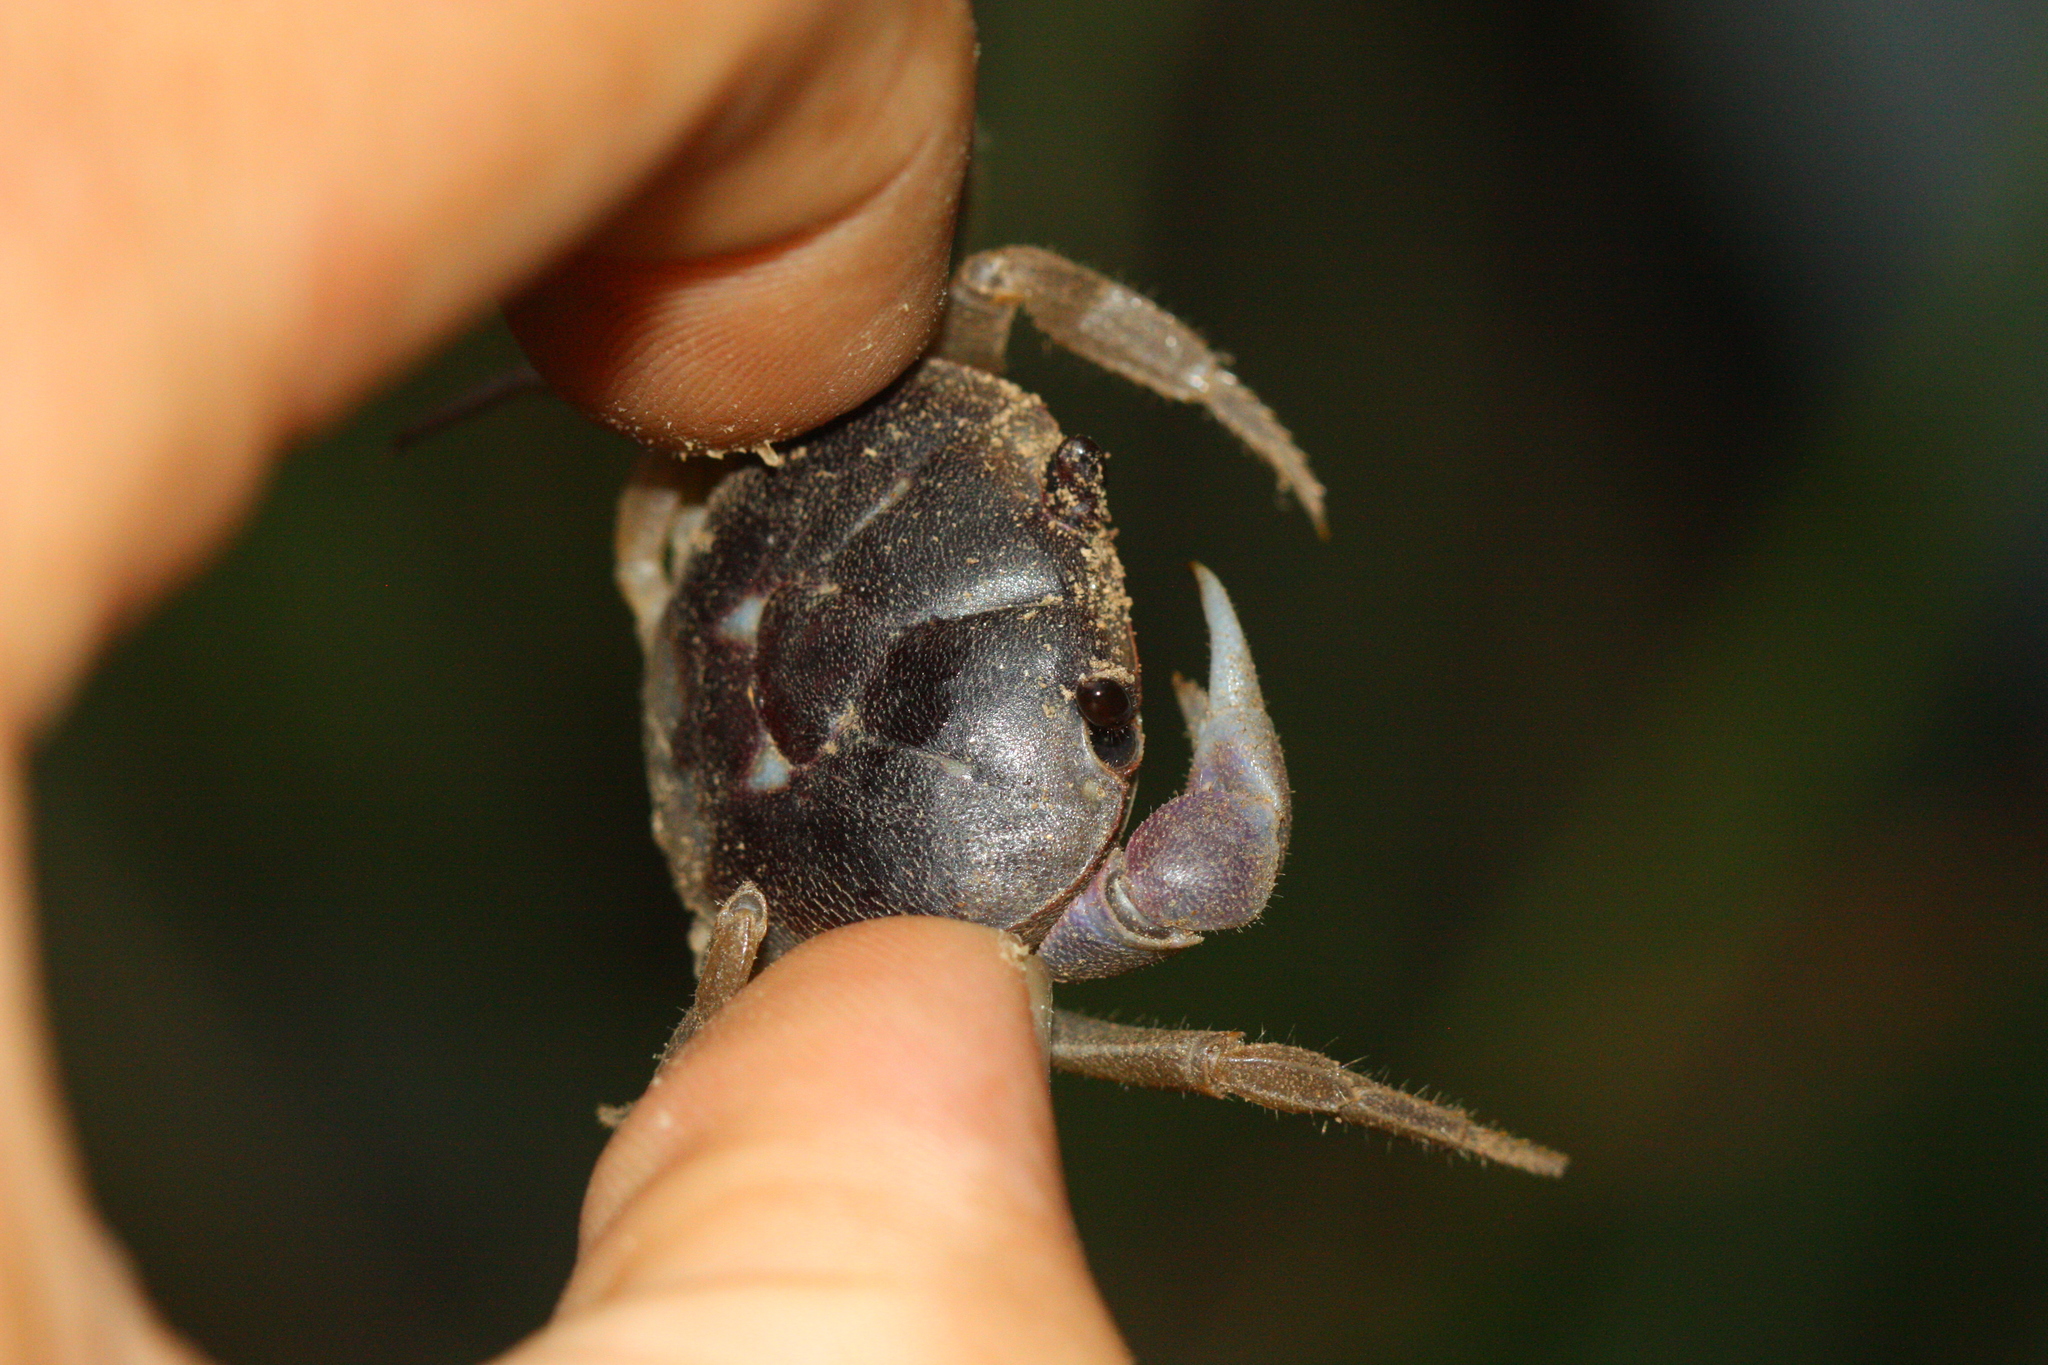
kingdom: Animalia
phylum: Arthropoda
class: Malacostraca
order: Decapoda
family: Gecarcinidae
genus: Gecarcinus
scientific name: Gecarcinus quadratus
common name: Halloween crab
